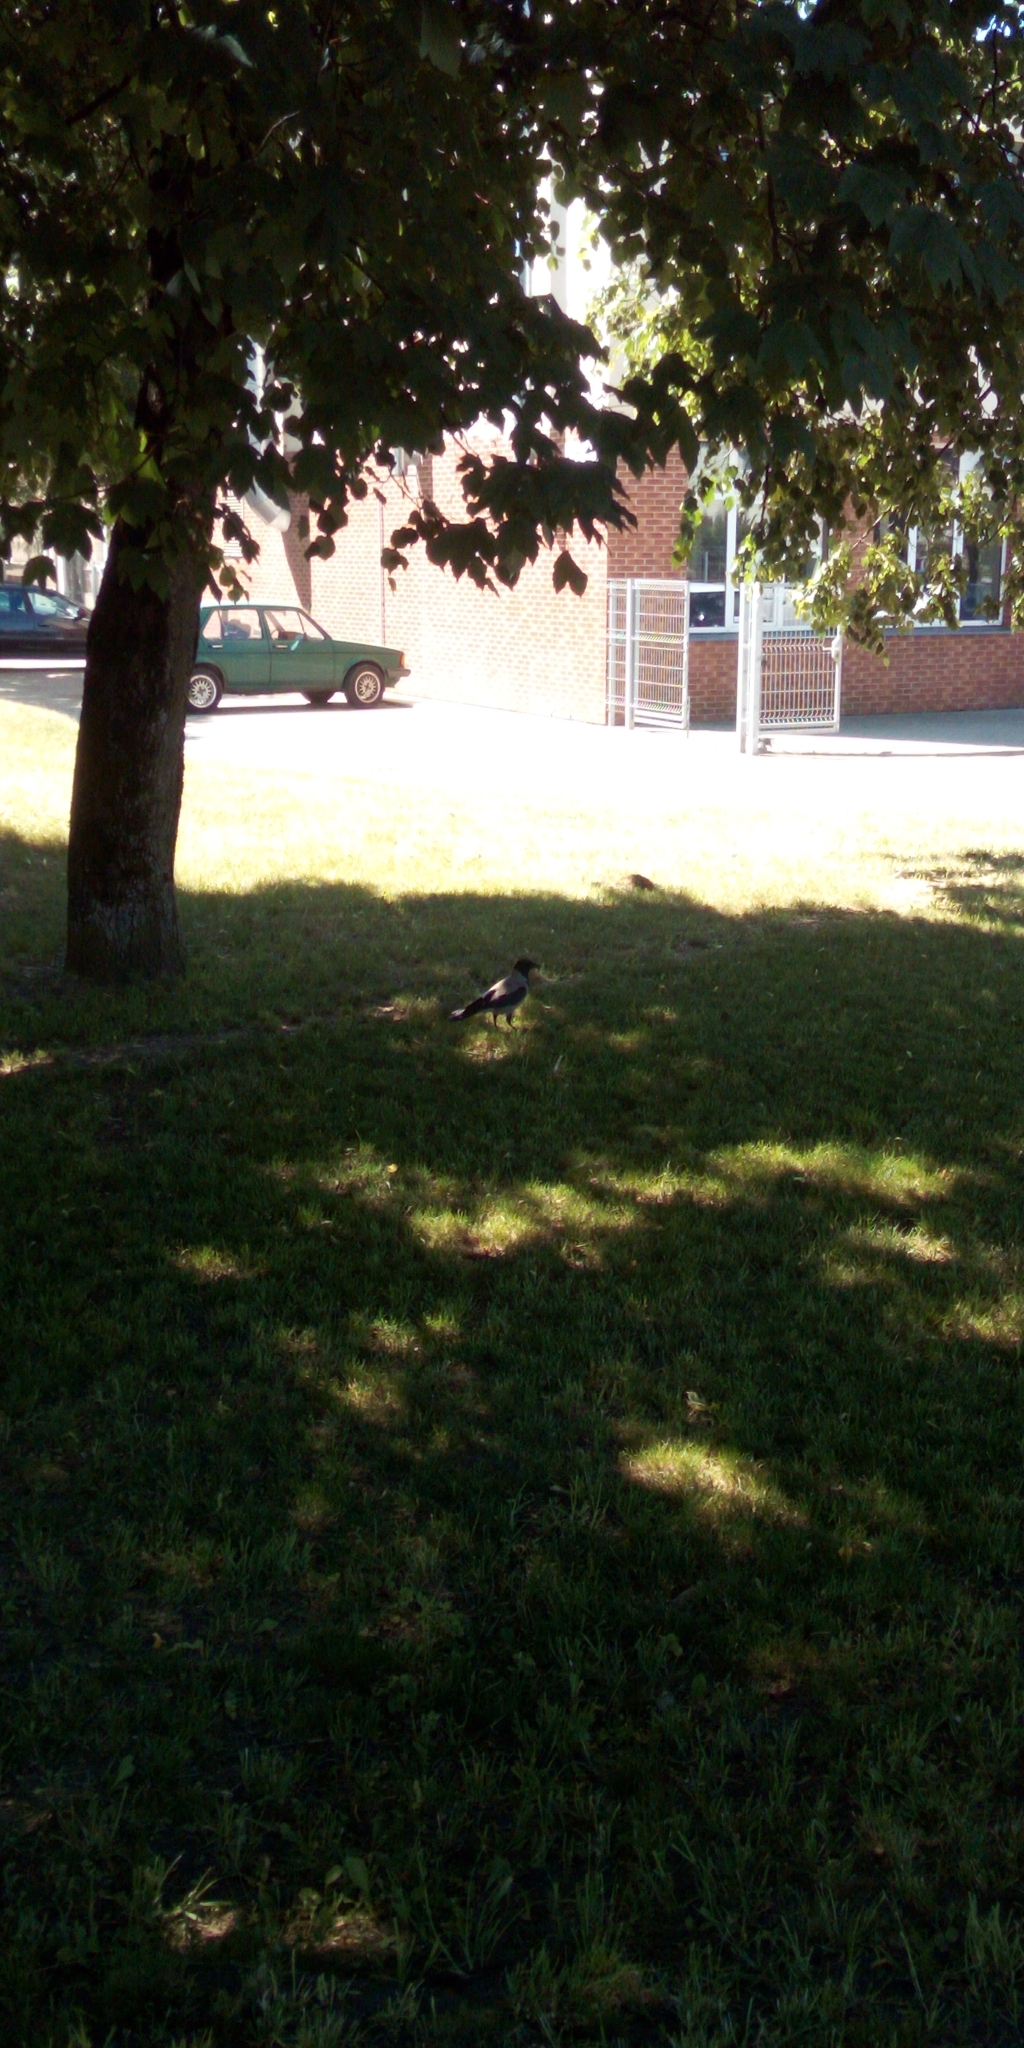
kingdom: Animalia
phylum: Chordata
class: Aves
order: Passeriformes
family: Corvidae
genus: Corvus
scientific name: Corvus cornix
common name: Hooded crow
